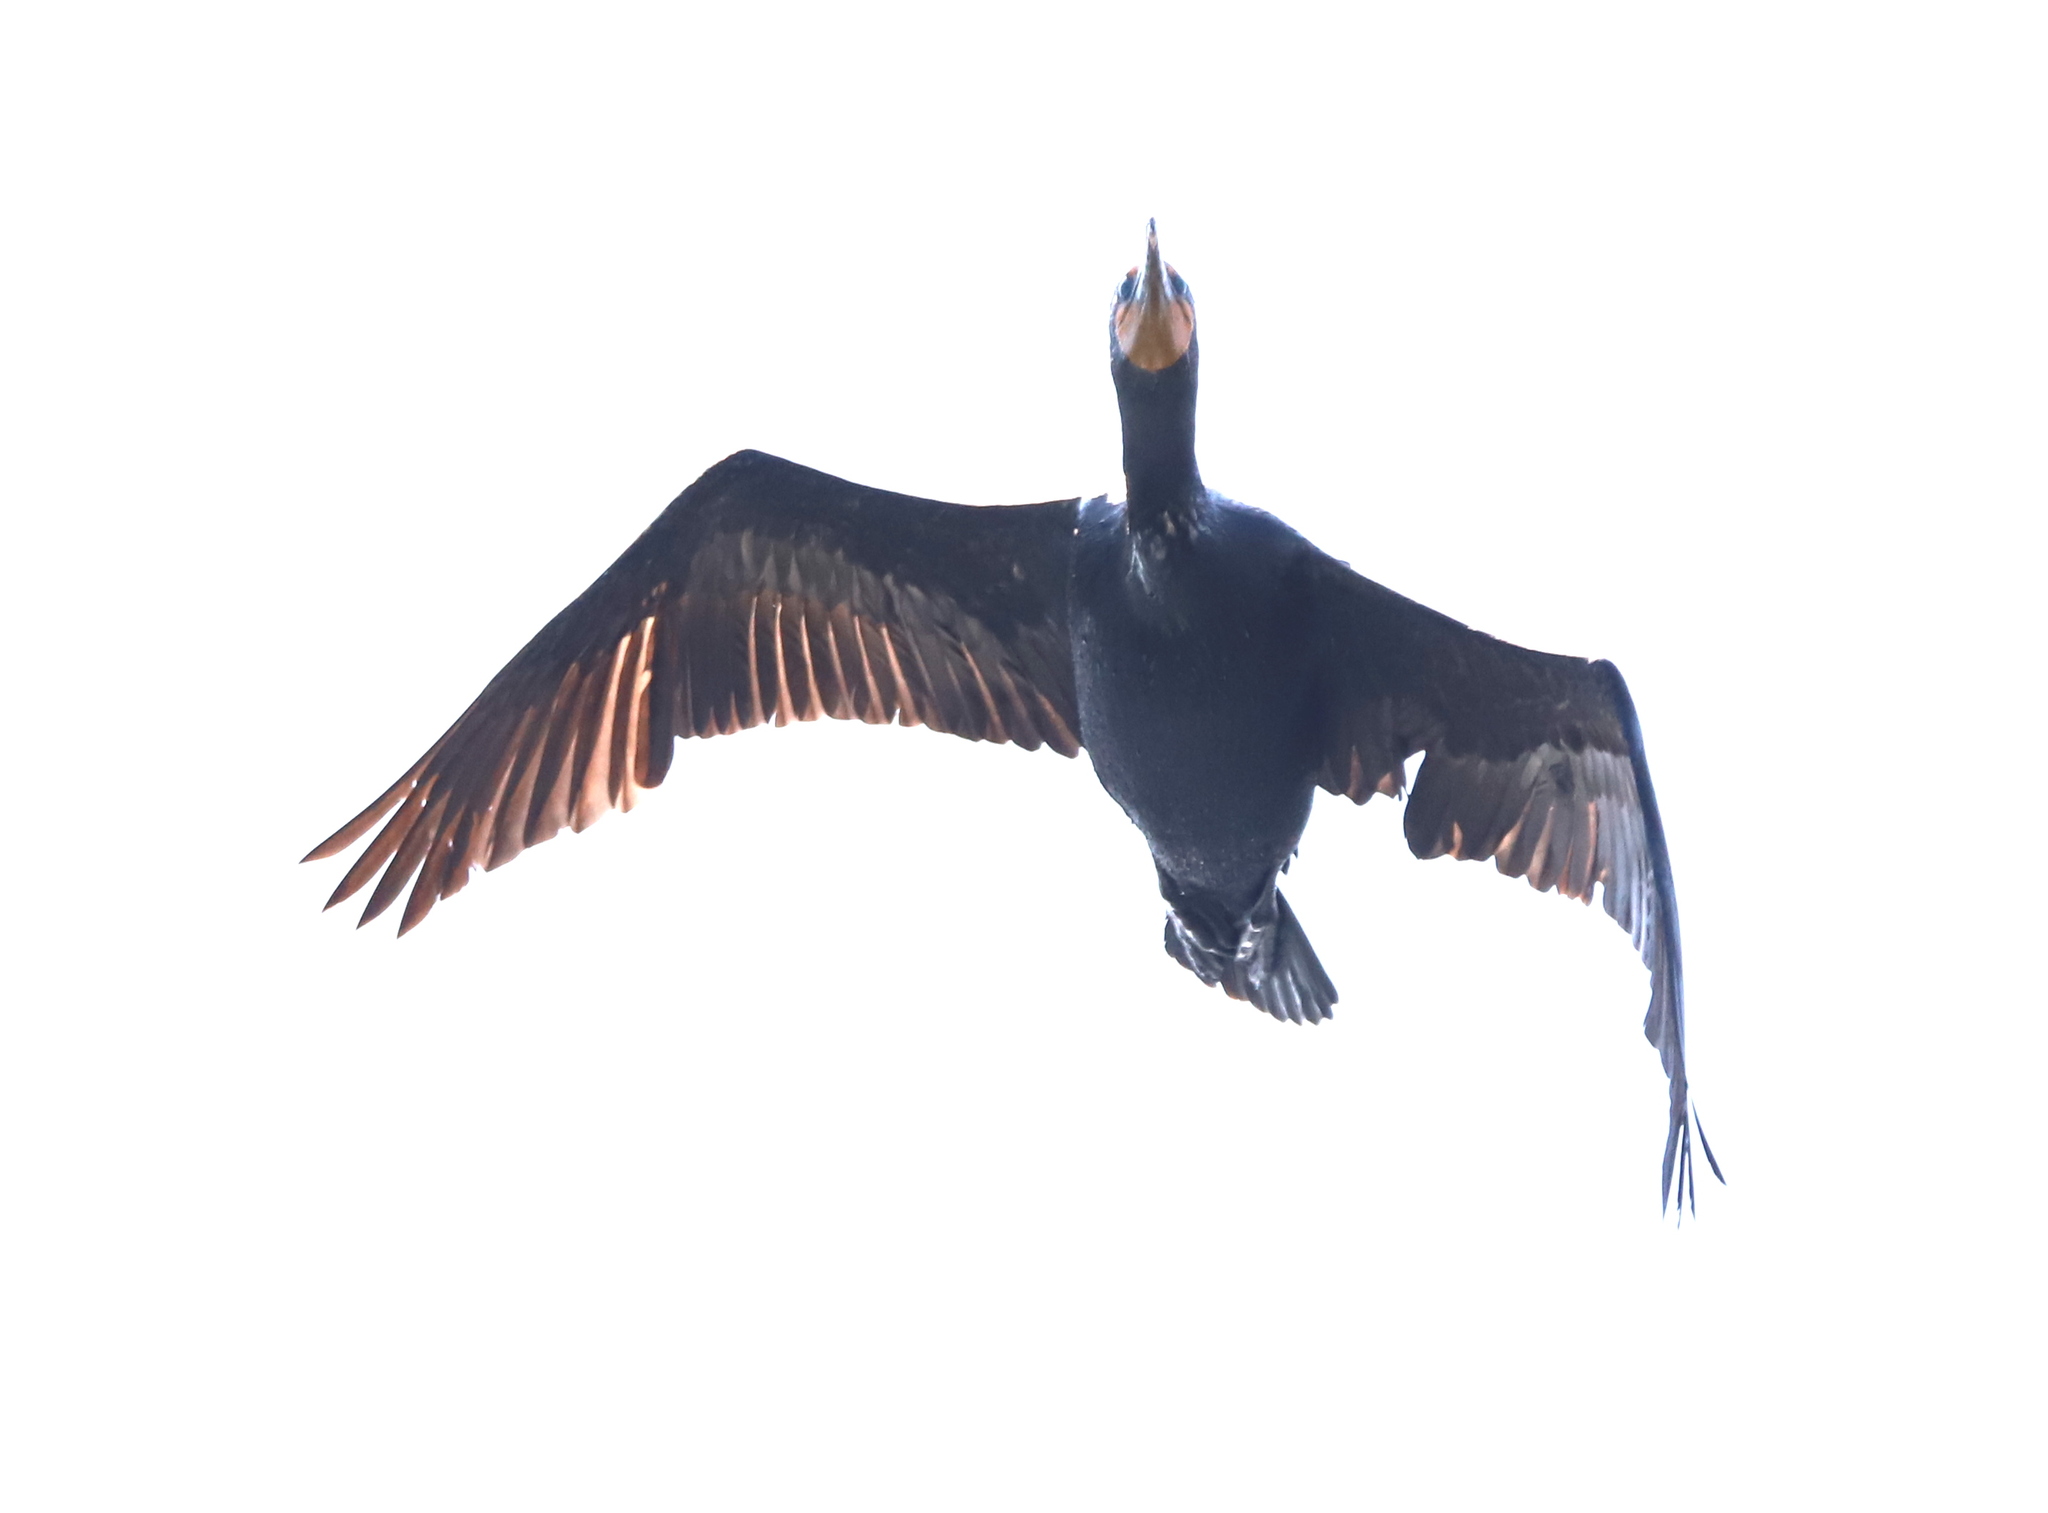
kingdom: Animalia
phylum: Chordata
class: Aves
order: Suliformes
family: Phalacrocoracidae
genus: Phalacrocorax
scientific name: Phalacrocorax auritus
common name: Double-crested cormorant
